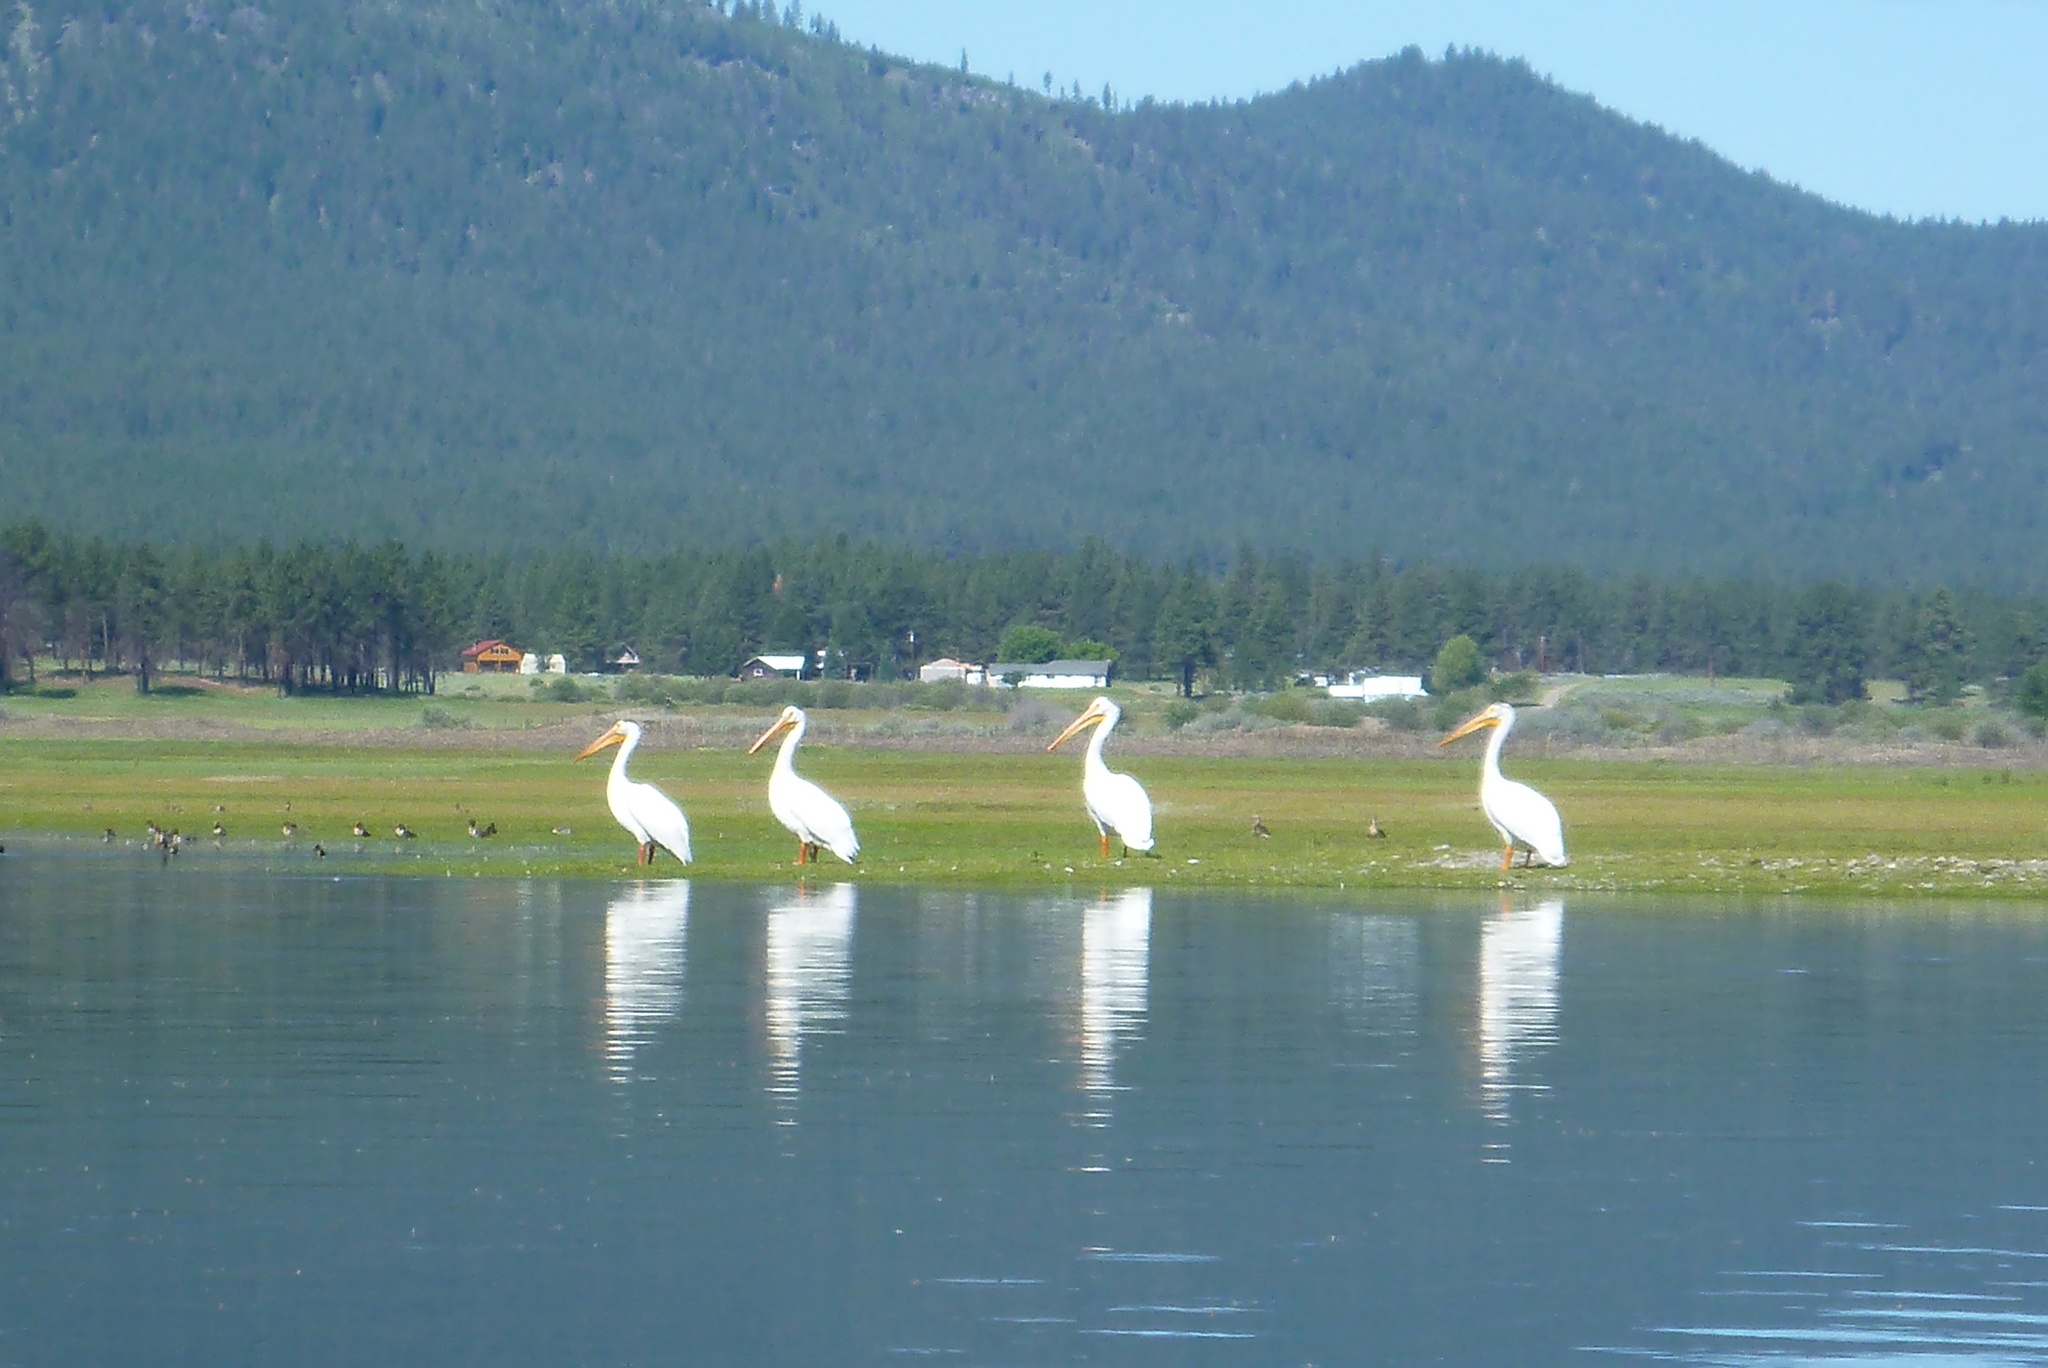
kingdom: Animalia
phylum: Chordata
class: Aves
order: Pelecaniformes
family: Pelecanidae
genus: Pelecanus
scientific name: Pelecanus erythrorhynchos
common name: American white pelican
